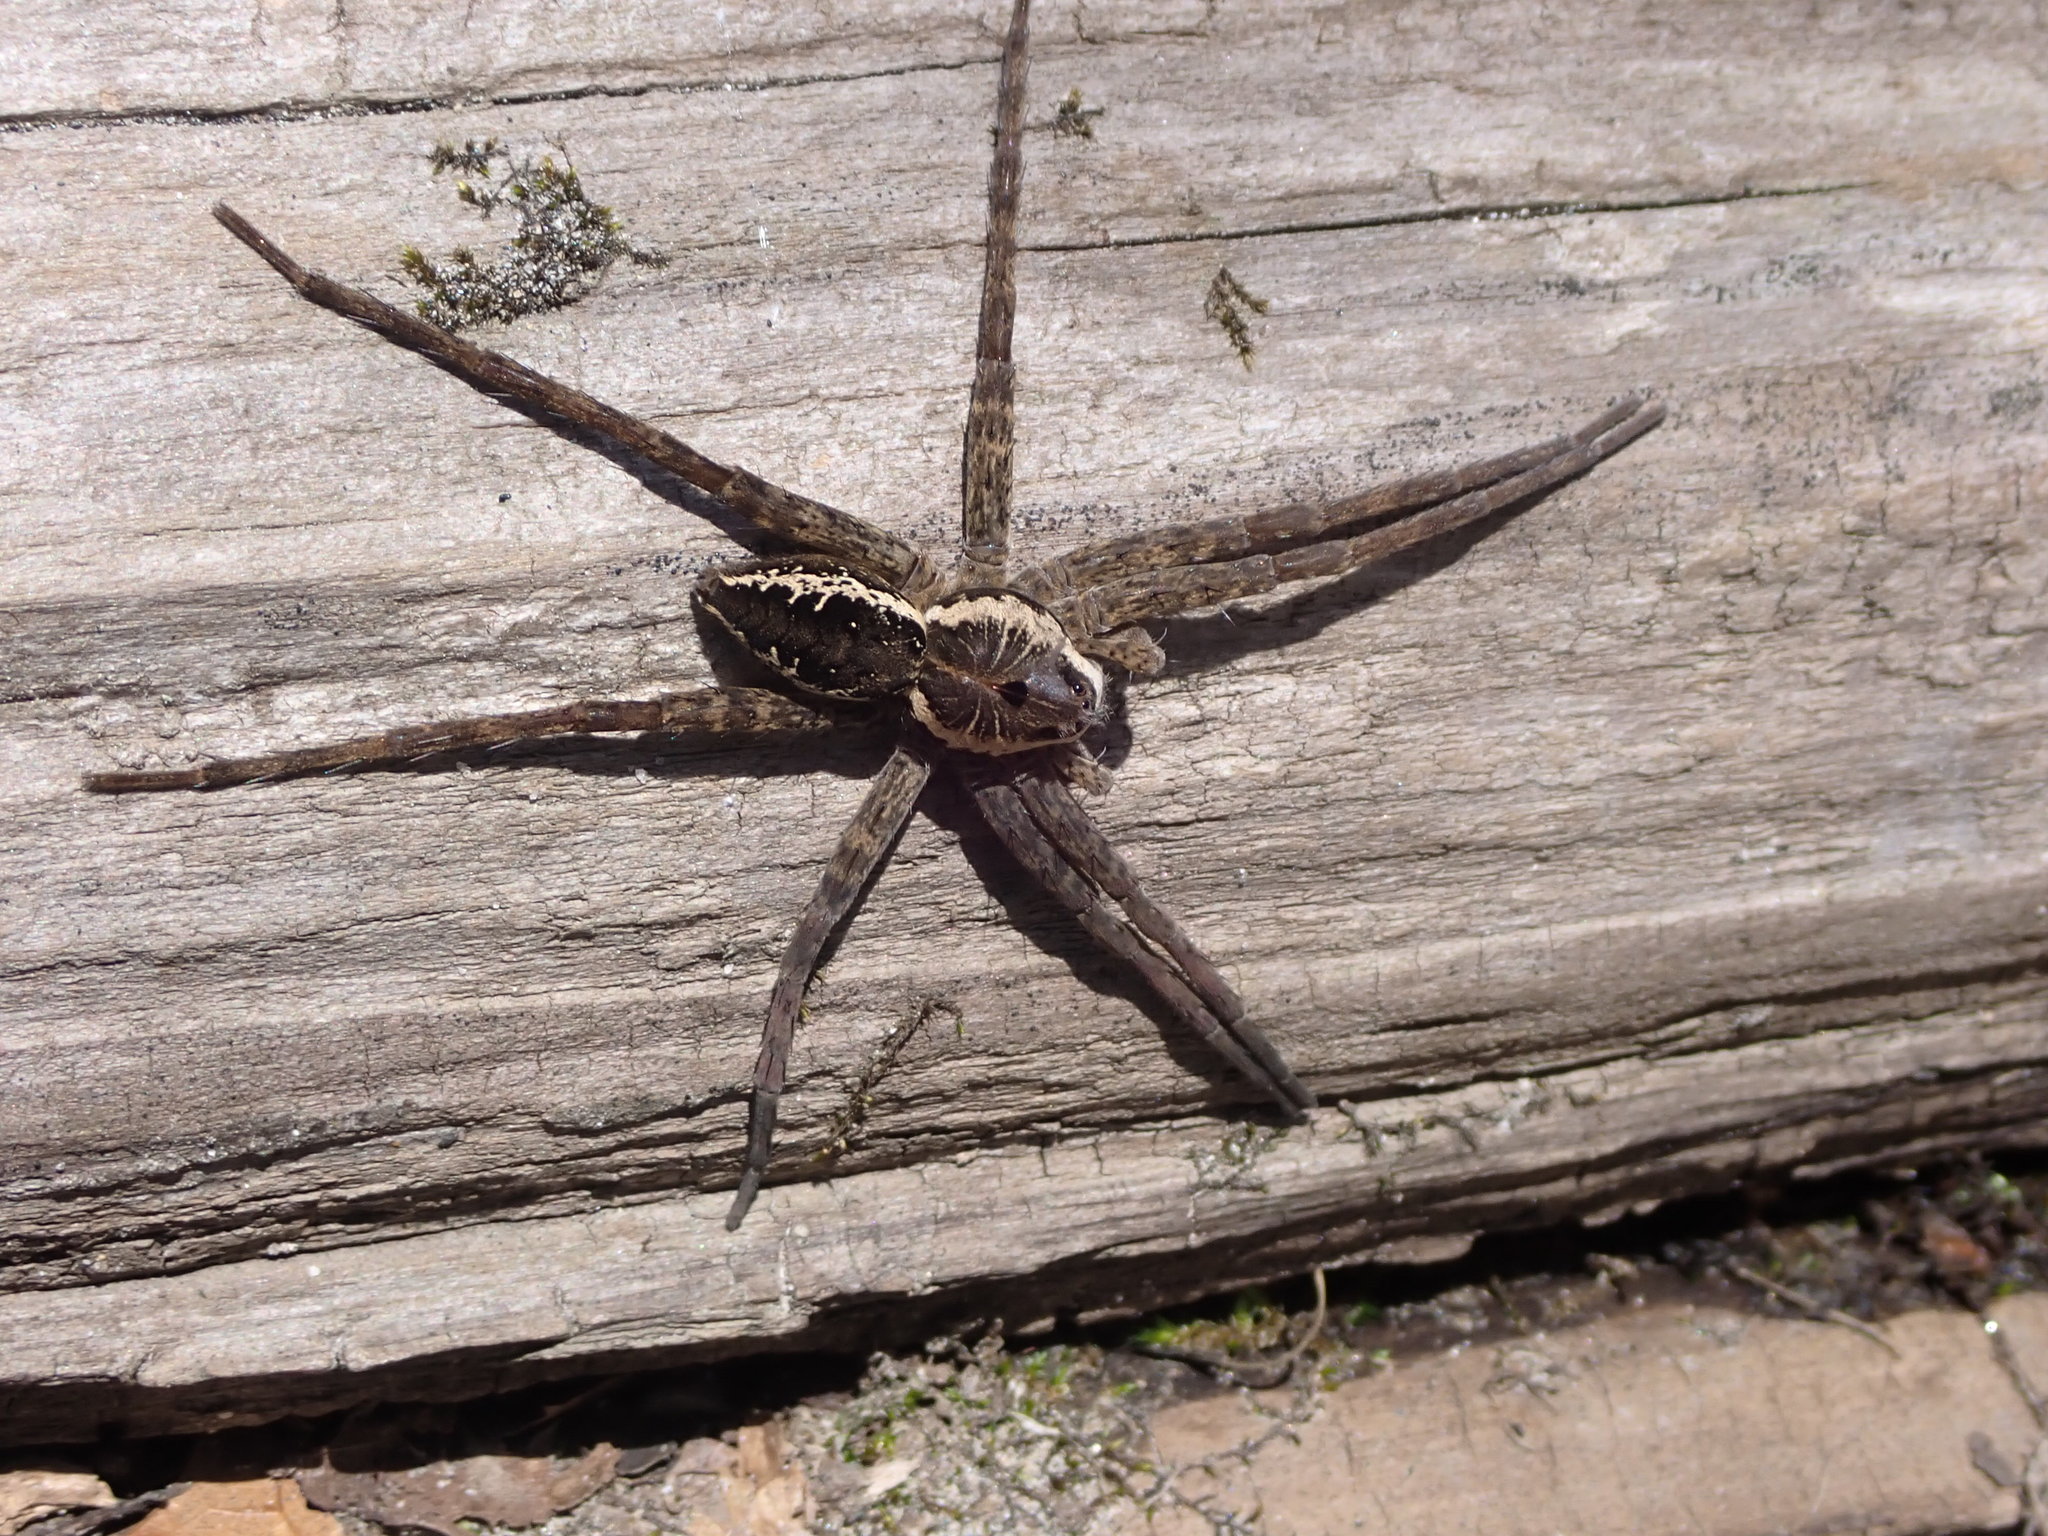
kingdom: Animalia
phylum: Arthropoda
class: Arachnida
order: Araneae
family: Pisauridae
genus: Dolomedes
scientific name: Dolomedes vittatus
